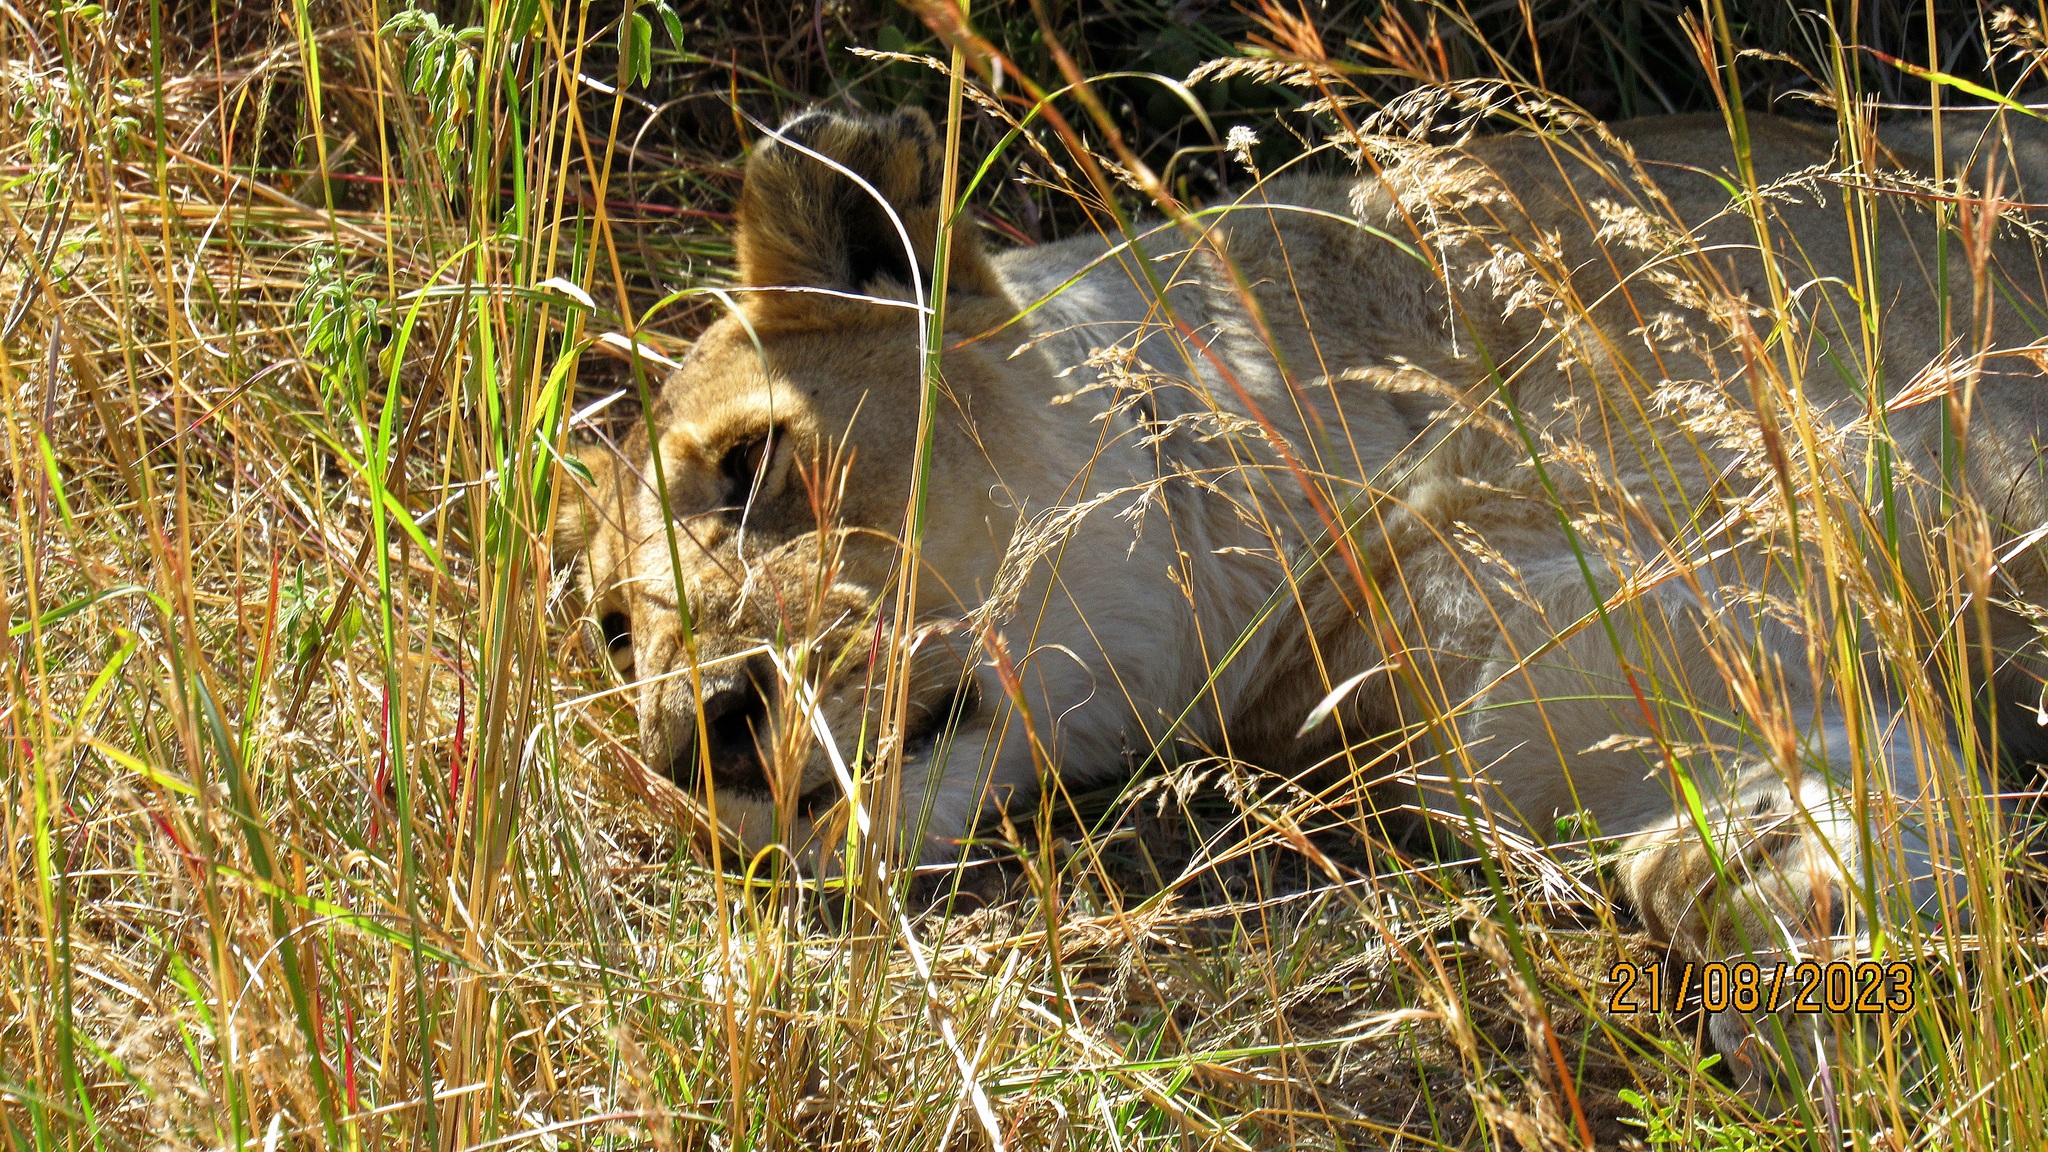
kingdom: Animalia
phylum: Chordata
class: Mammalia
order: Carnivora
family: Felidae
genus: Panthera
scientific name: Panthera leo
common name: Lion
